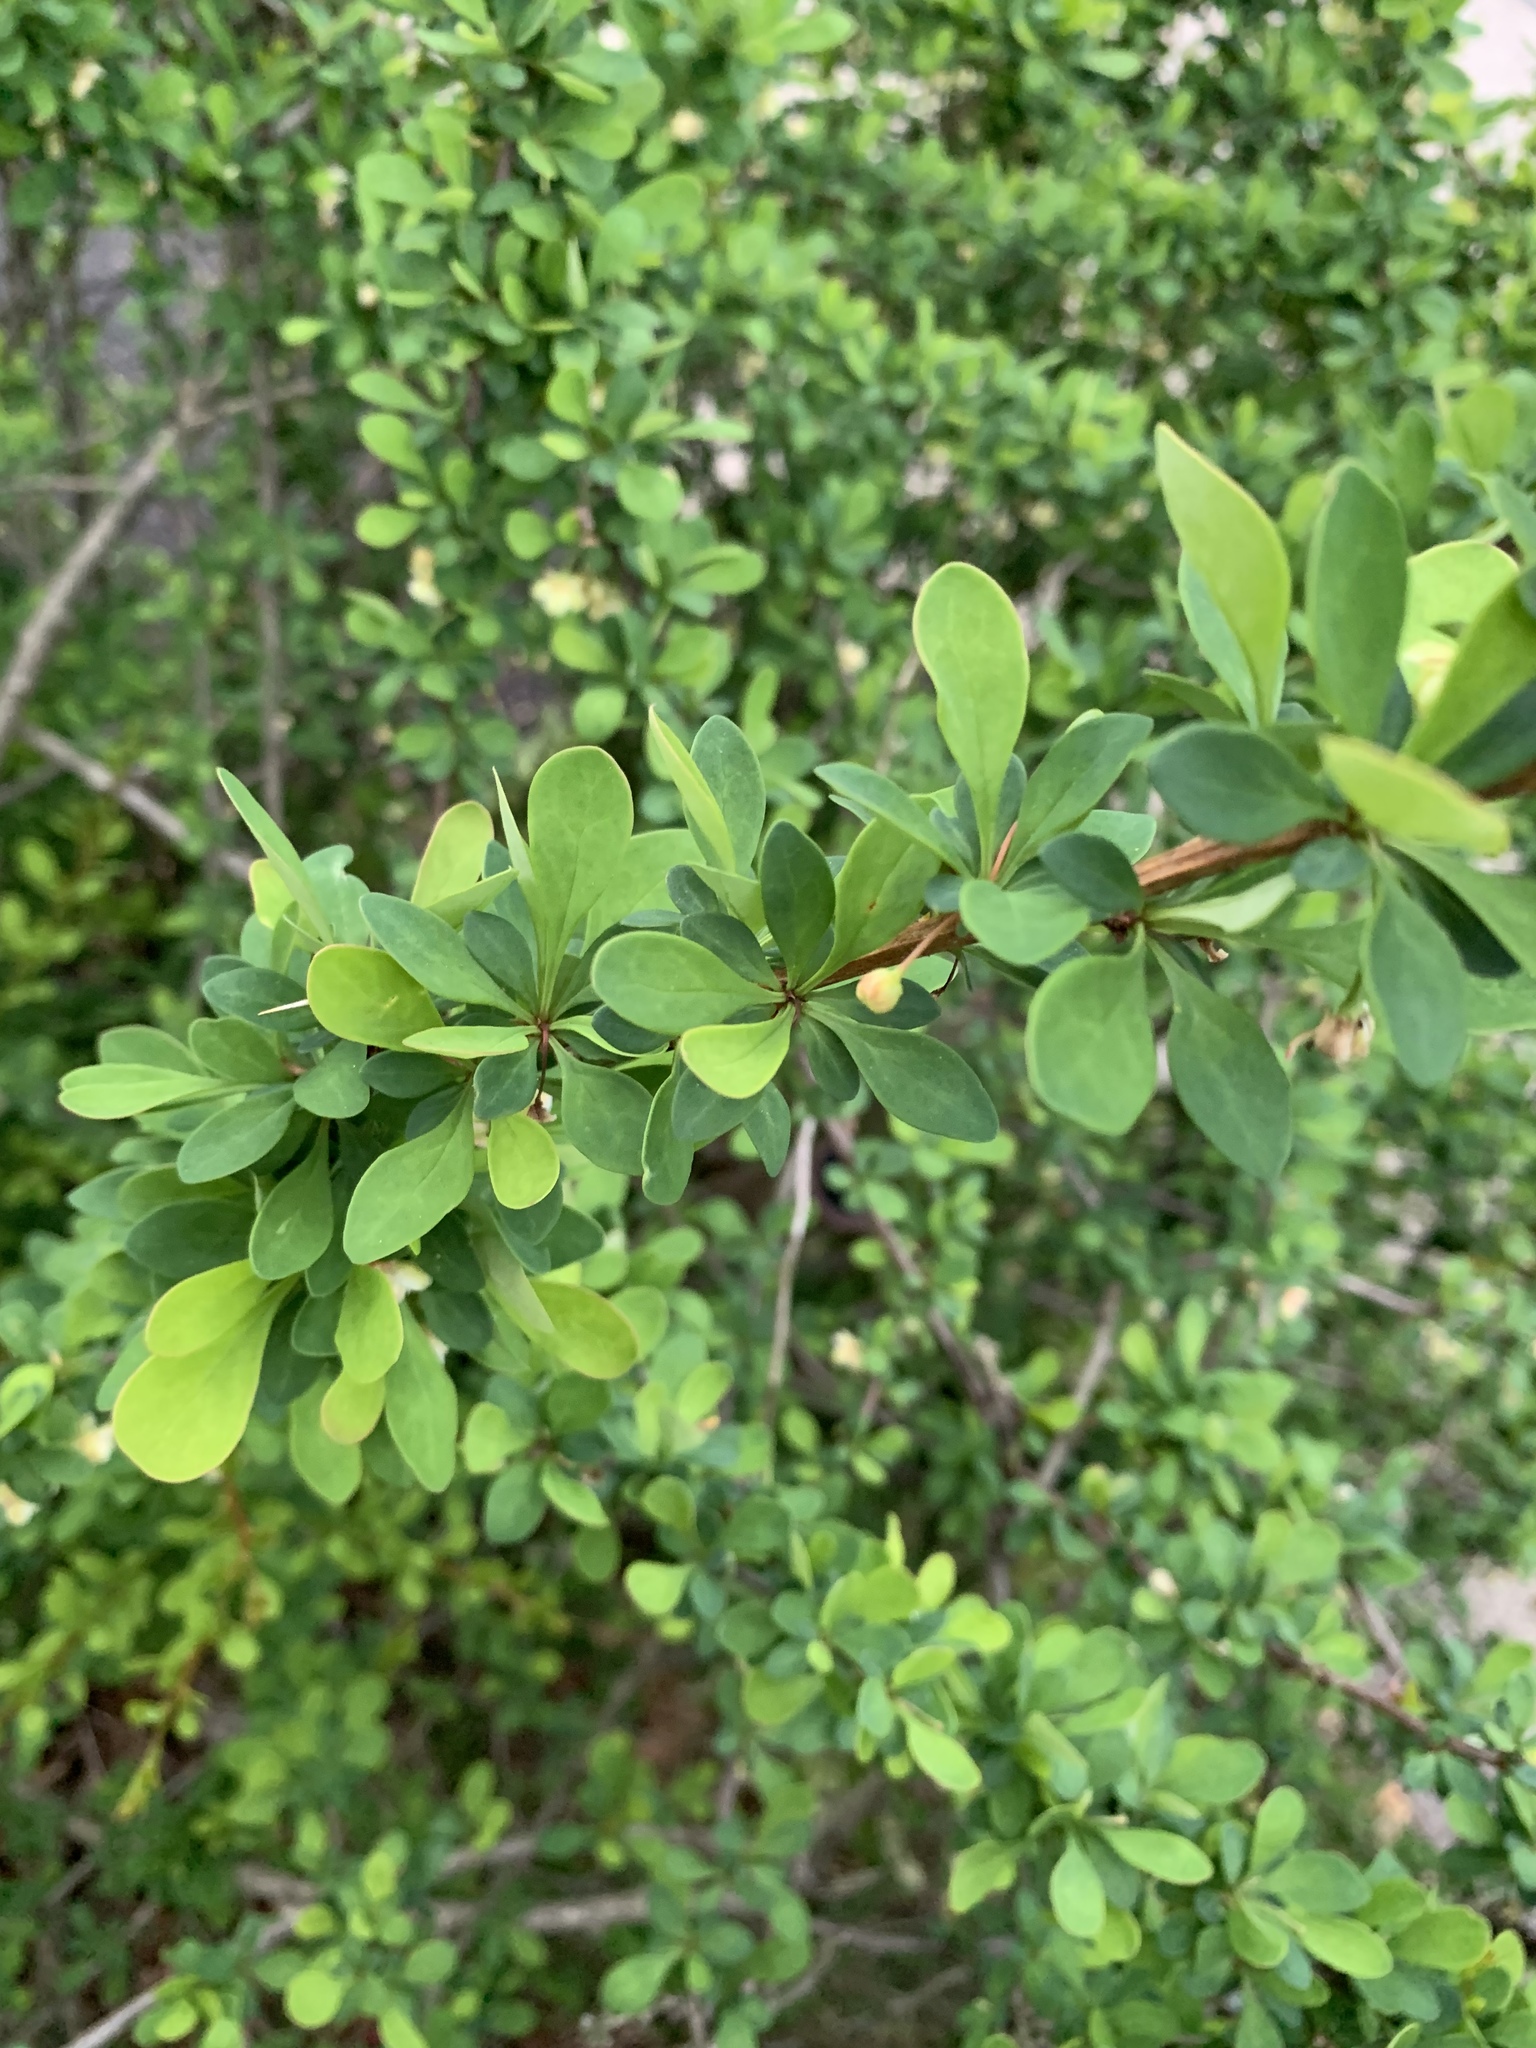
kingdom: Plantae
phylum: Tracheophyta
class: Magnoliopsida
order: Ranunculales
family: Berberidaceae
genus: Berberis
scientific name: Berberis thunbergii
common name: Japanese barberry
